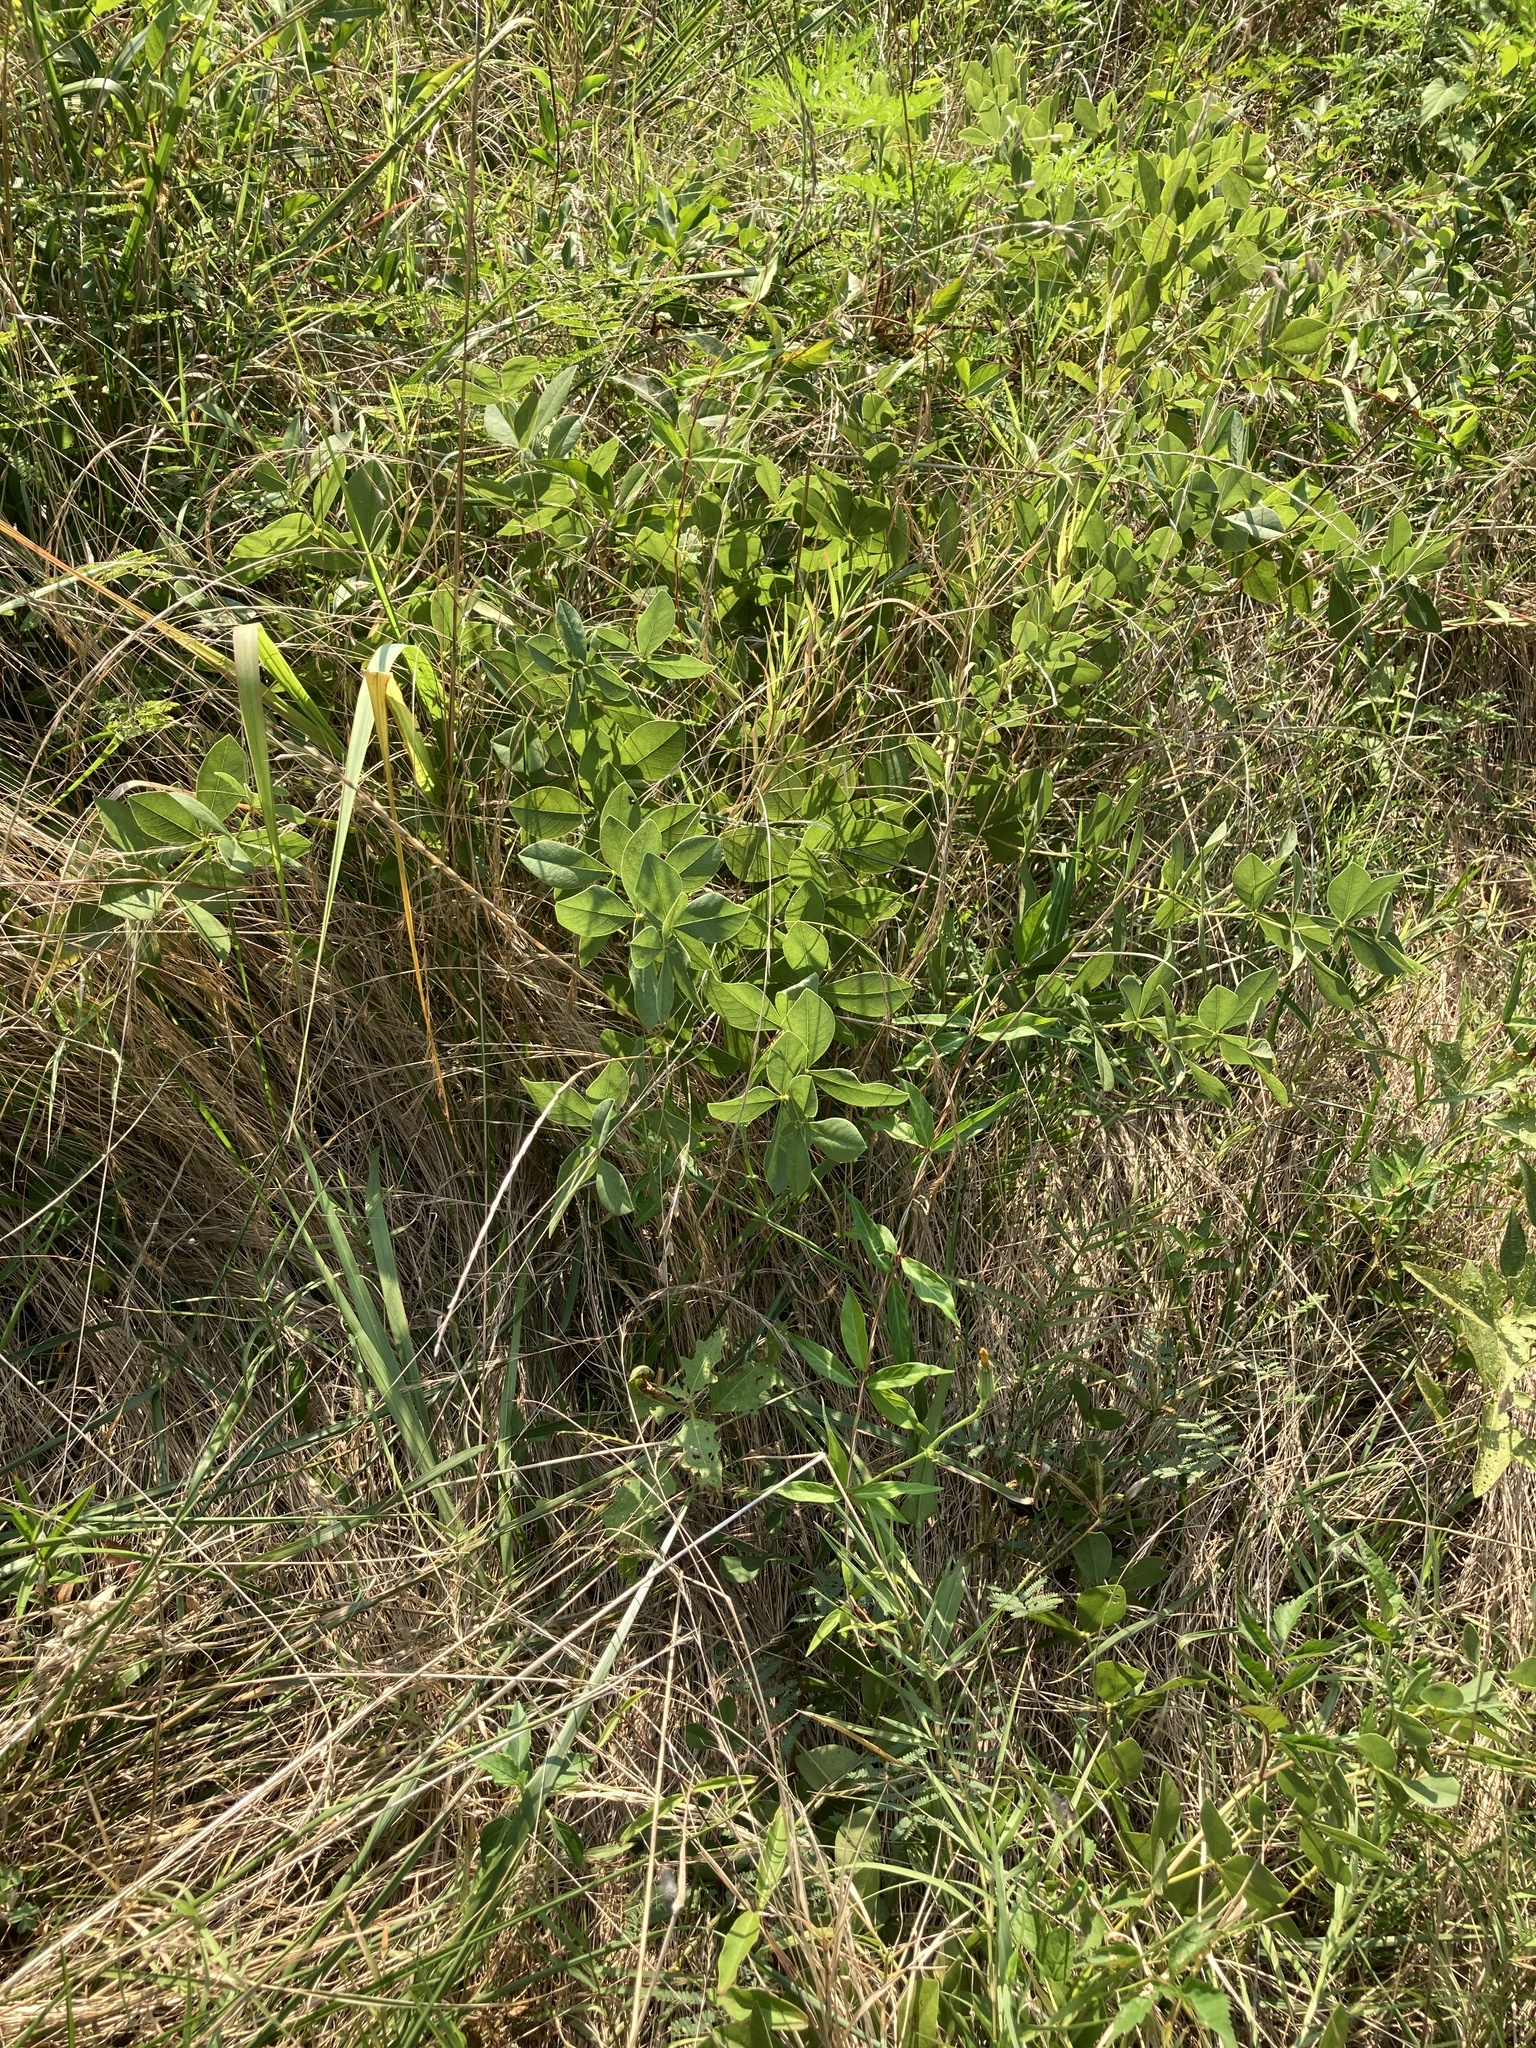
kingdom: Plantae
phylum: Tracheophyta
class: Magnoliopsida
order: Fabales
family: Fabaceae
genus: Baptisia
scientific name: Baptisia bracteata
